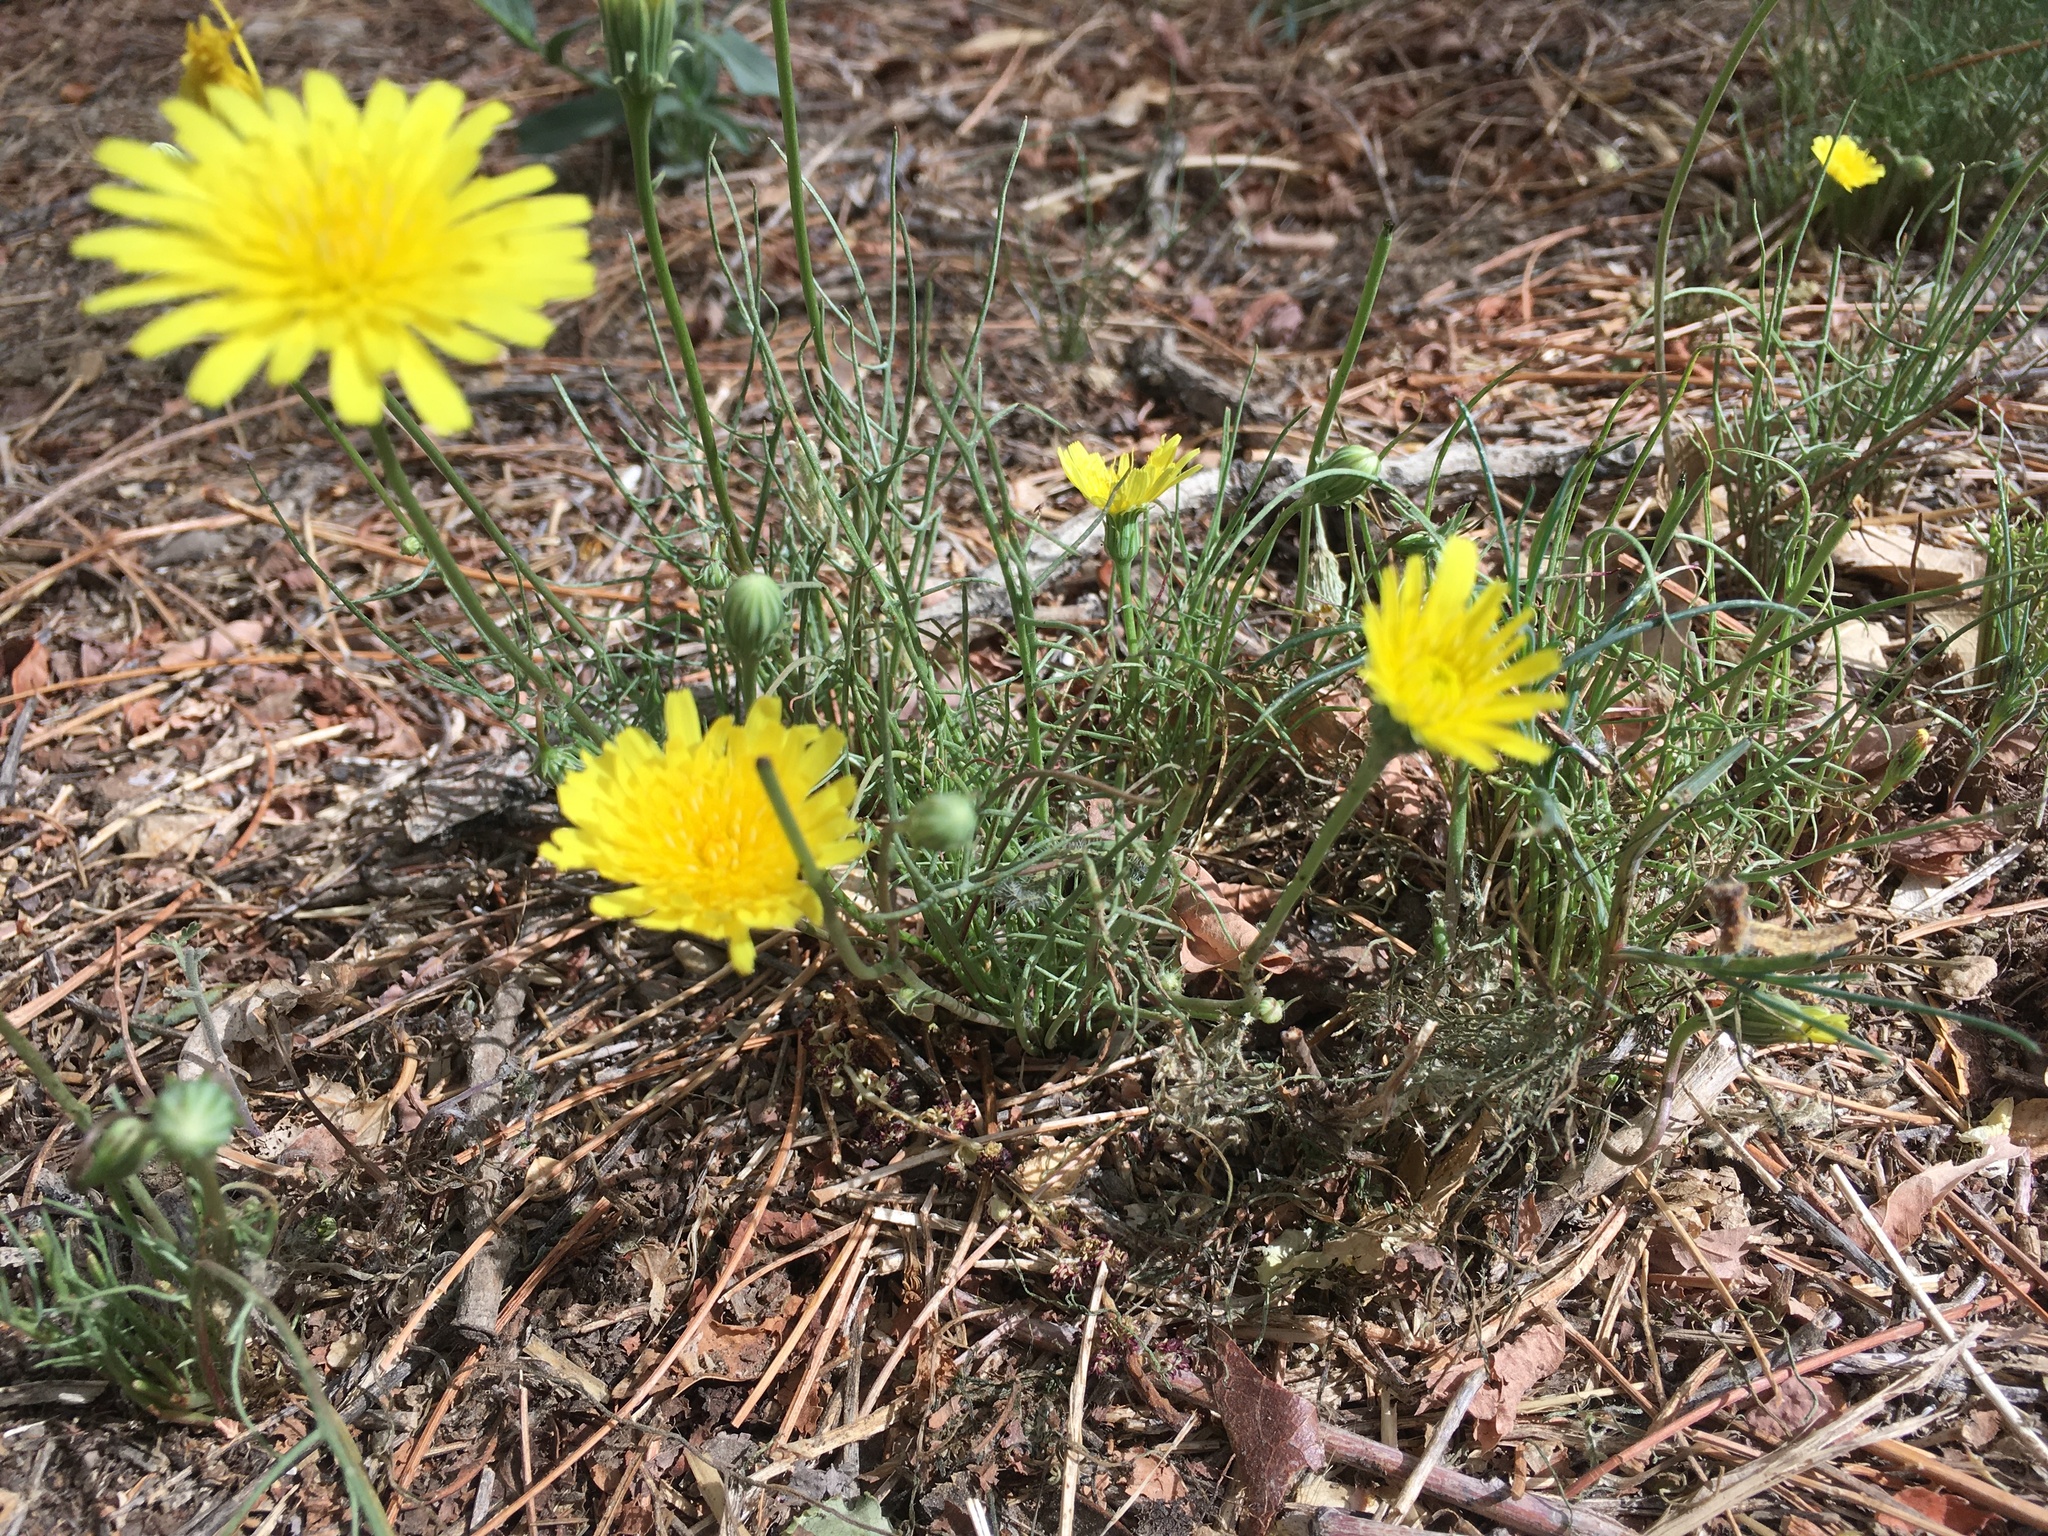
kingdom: Plantae
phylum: Tracheophyta
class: Magnoliopsida
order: Asterales
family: Asteraceae
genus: Malacothrix
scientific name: Malacothrix glabrata
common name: Smooth desert-dandelion
